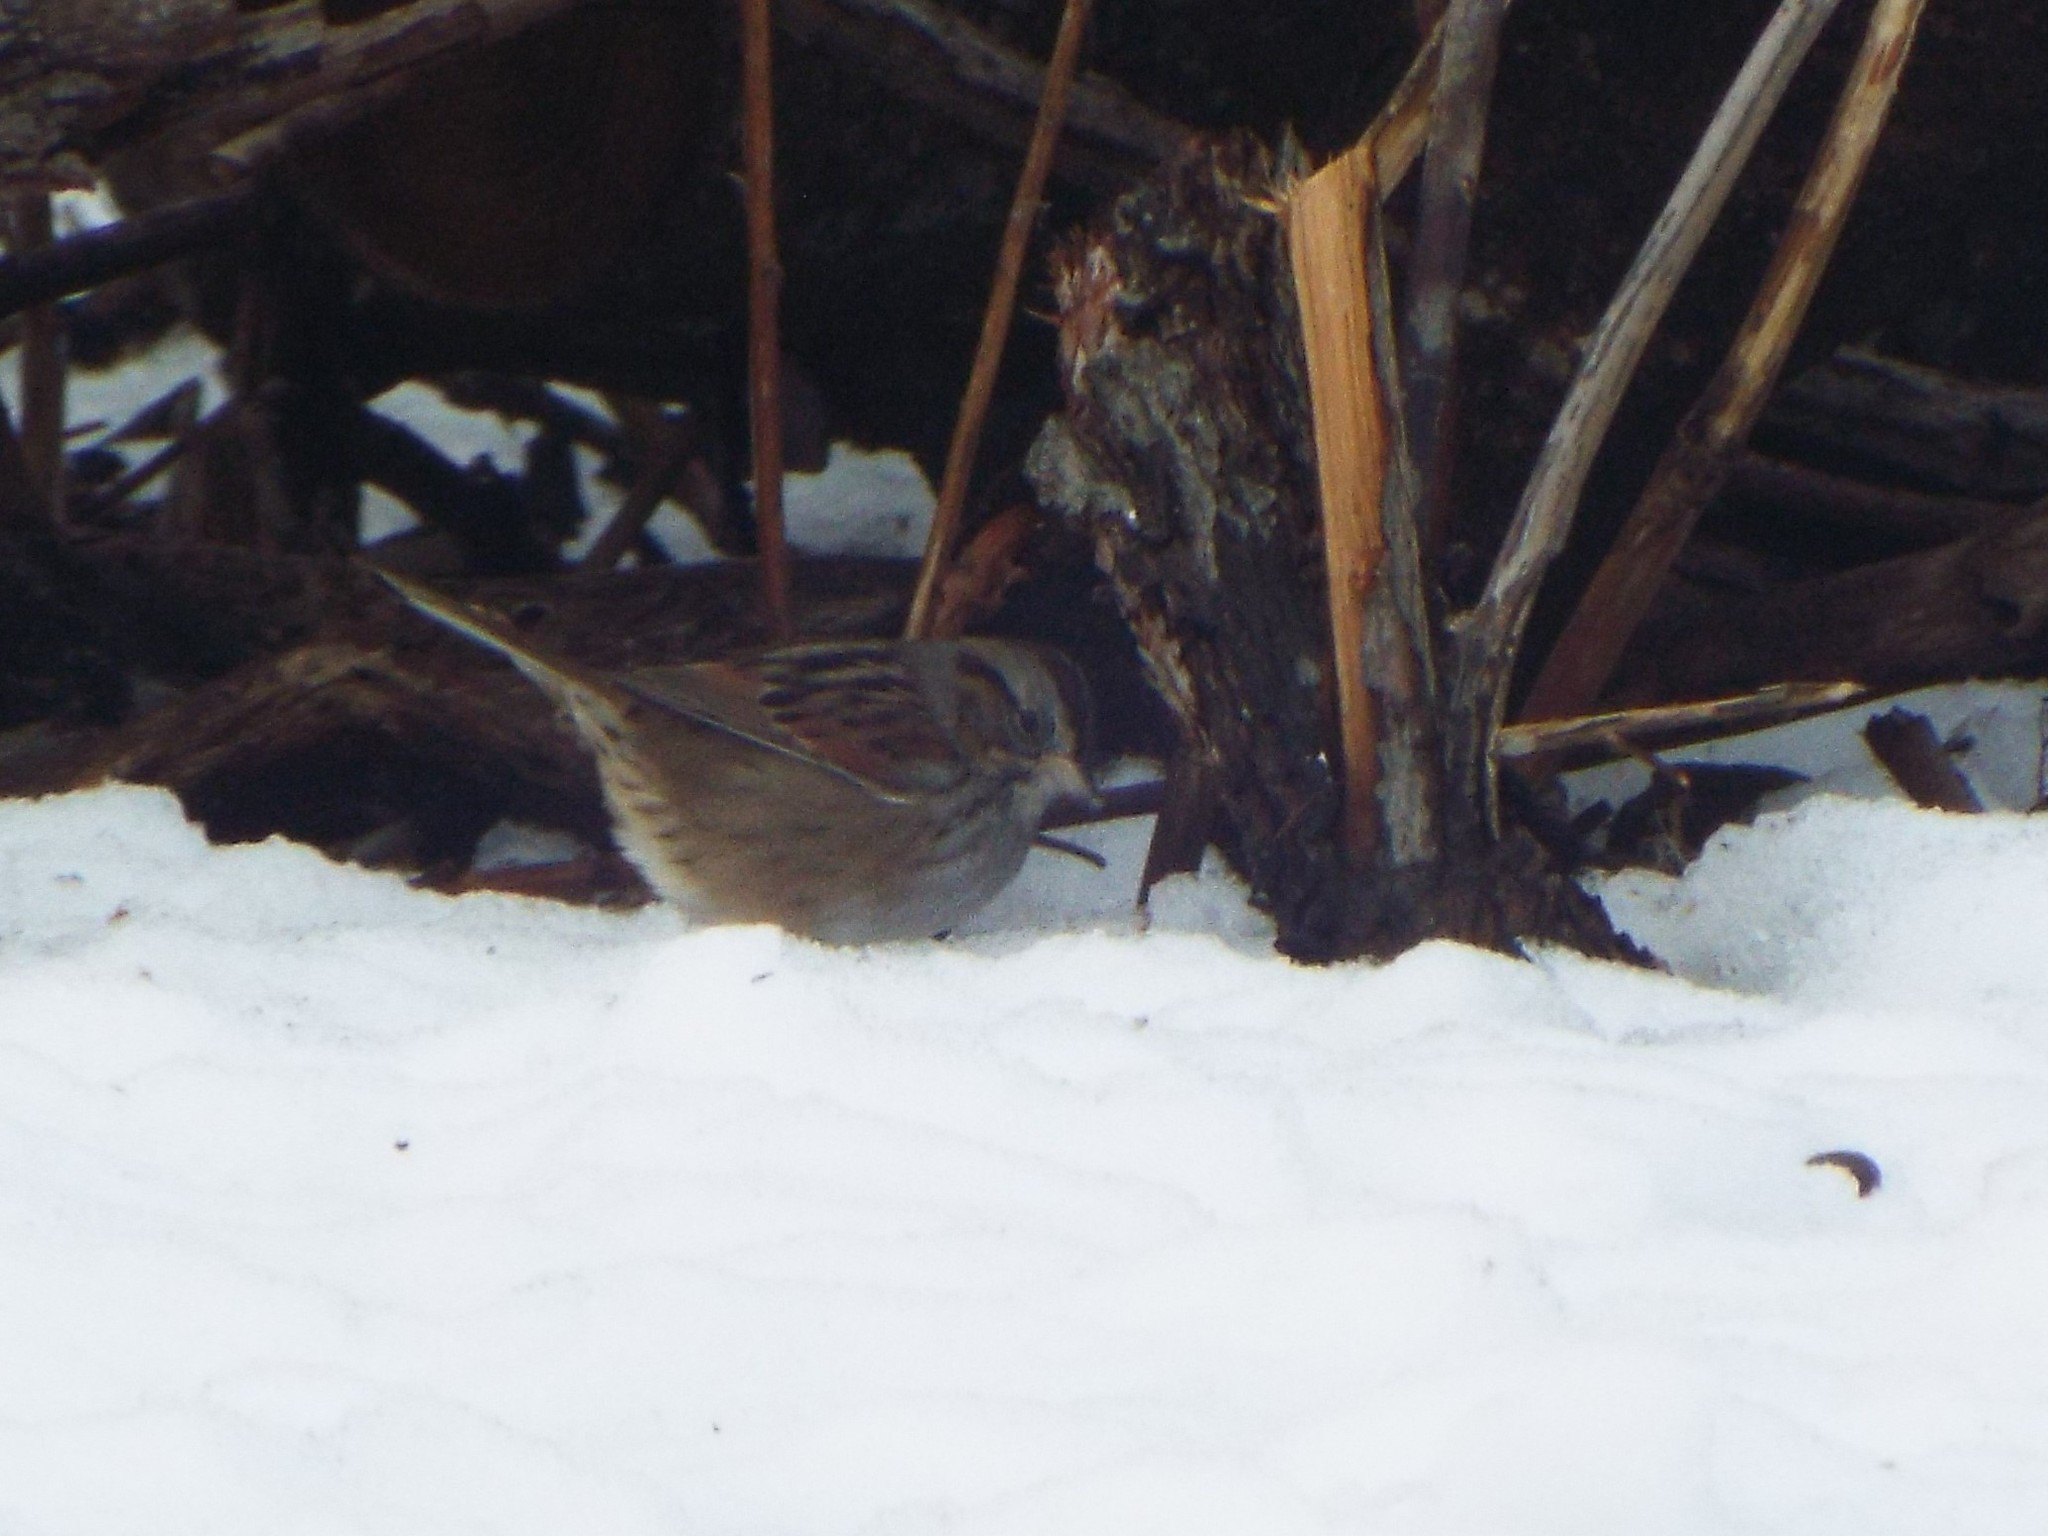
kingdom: Animalia
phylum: Chordata
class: Aves
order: Passeriformes
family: Passerellidae
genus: Melospiza
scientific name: Melospiza georgiana
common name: Swamp sparrow
